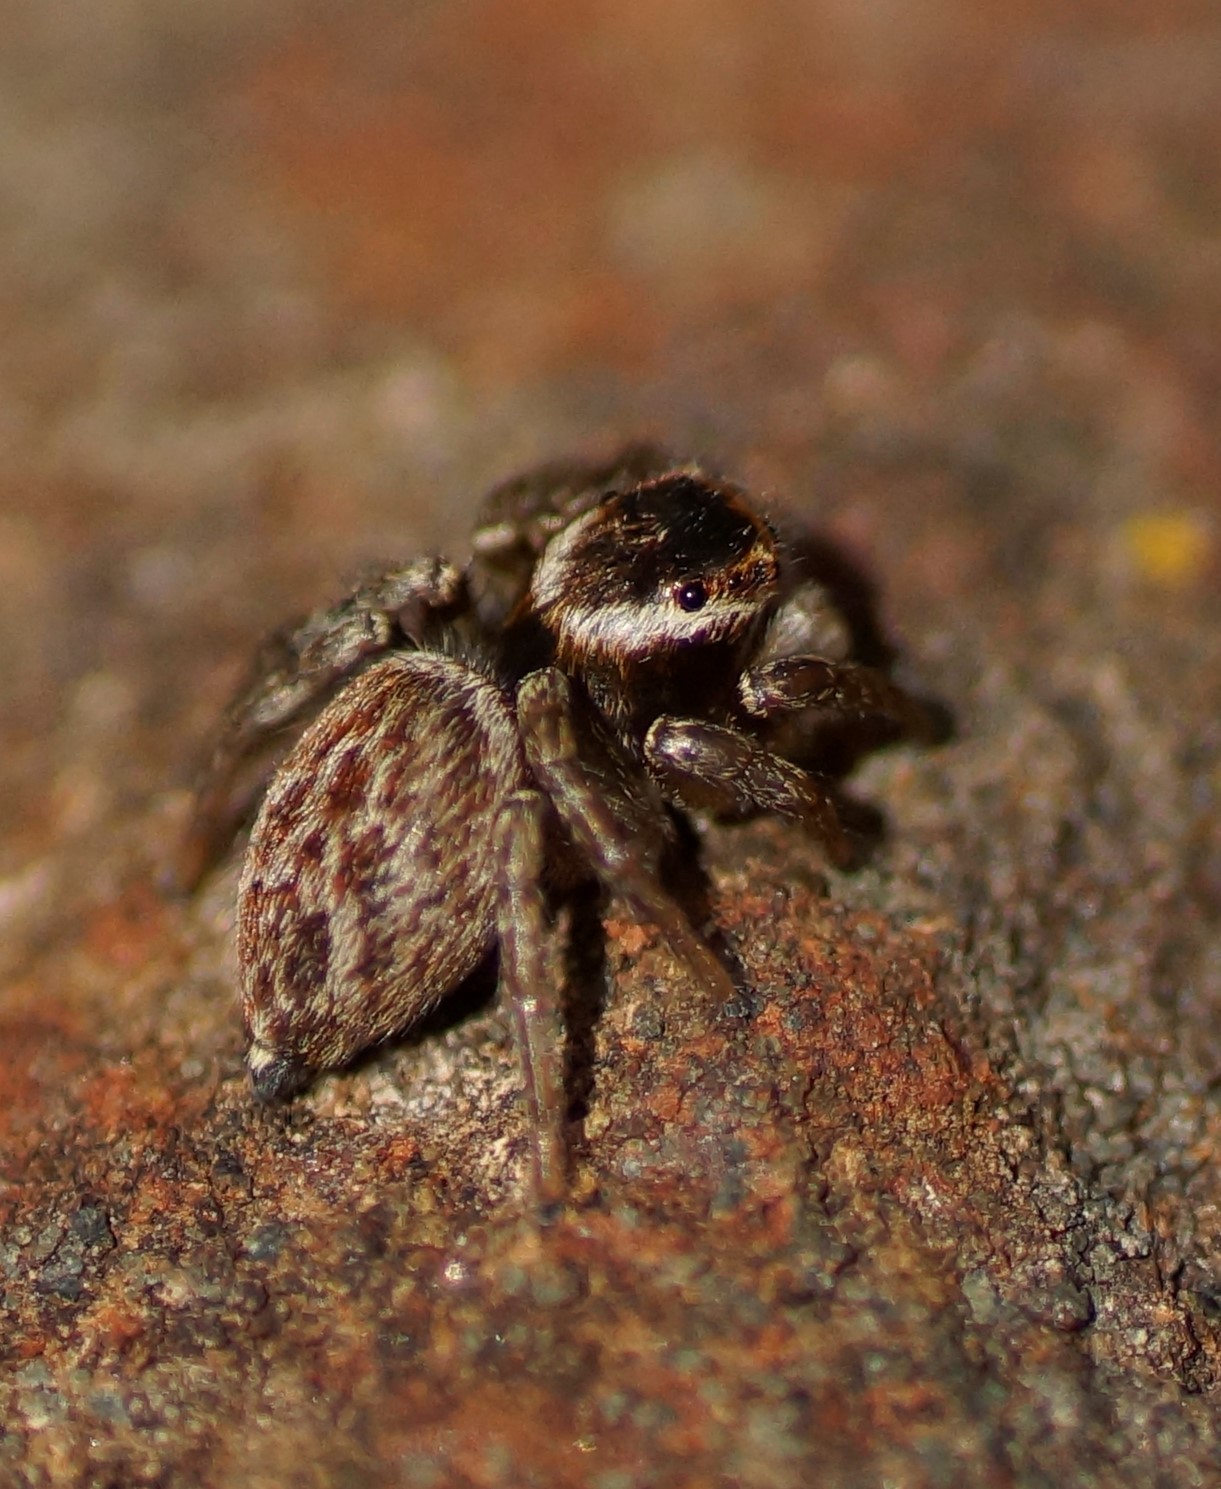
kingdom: Animalia
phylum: Arthropoda
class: Arachnida
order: Araneae
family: Salticidae
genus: Maratus
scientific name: Maratus griseus
